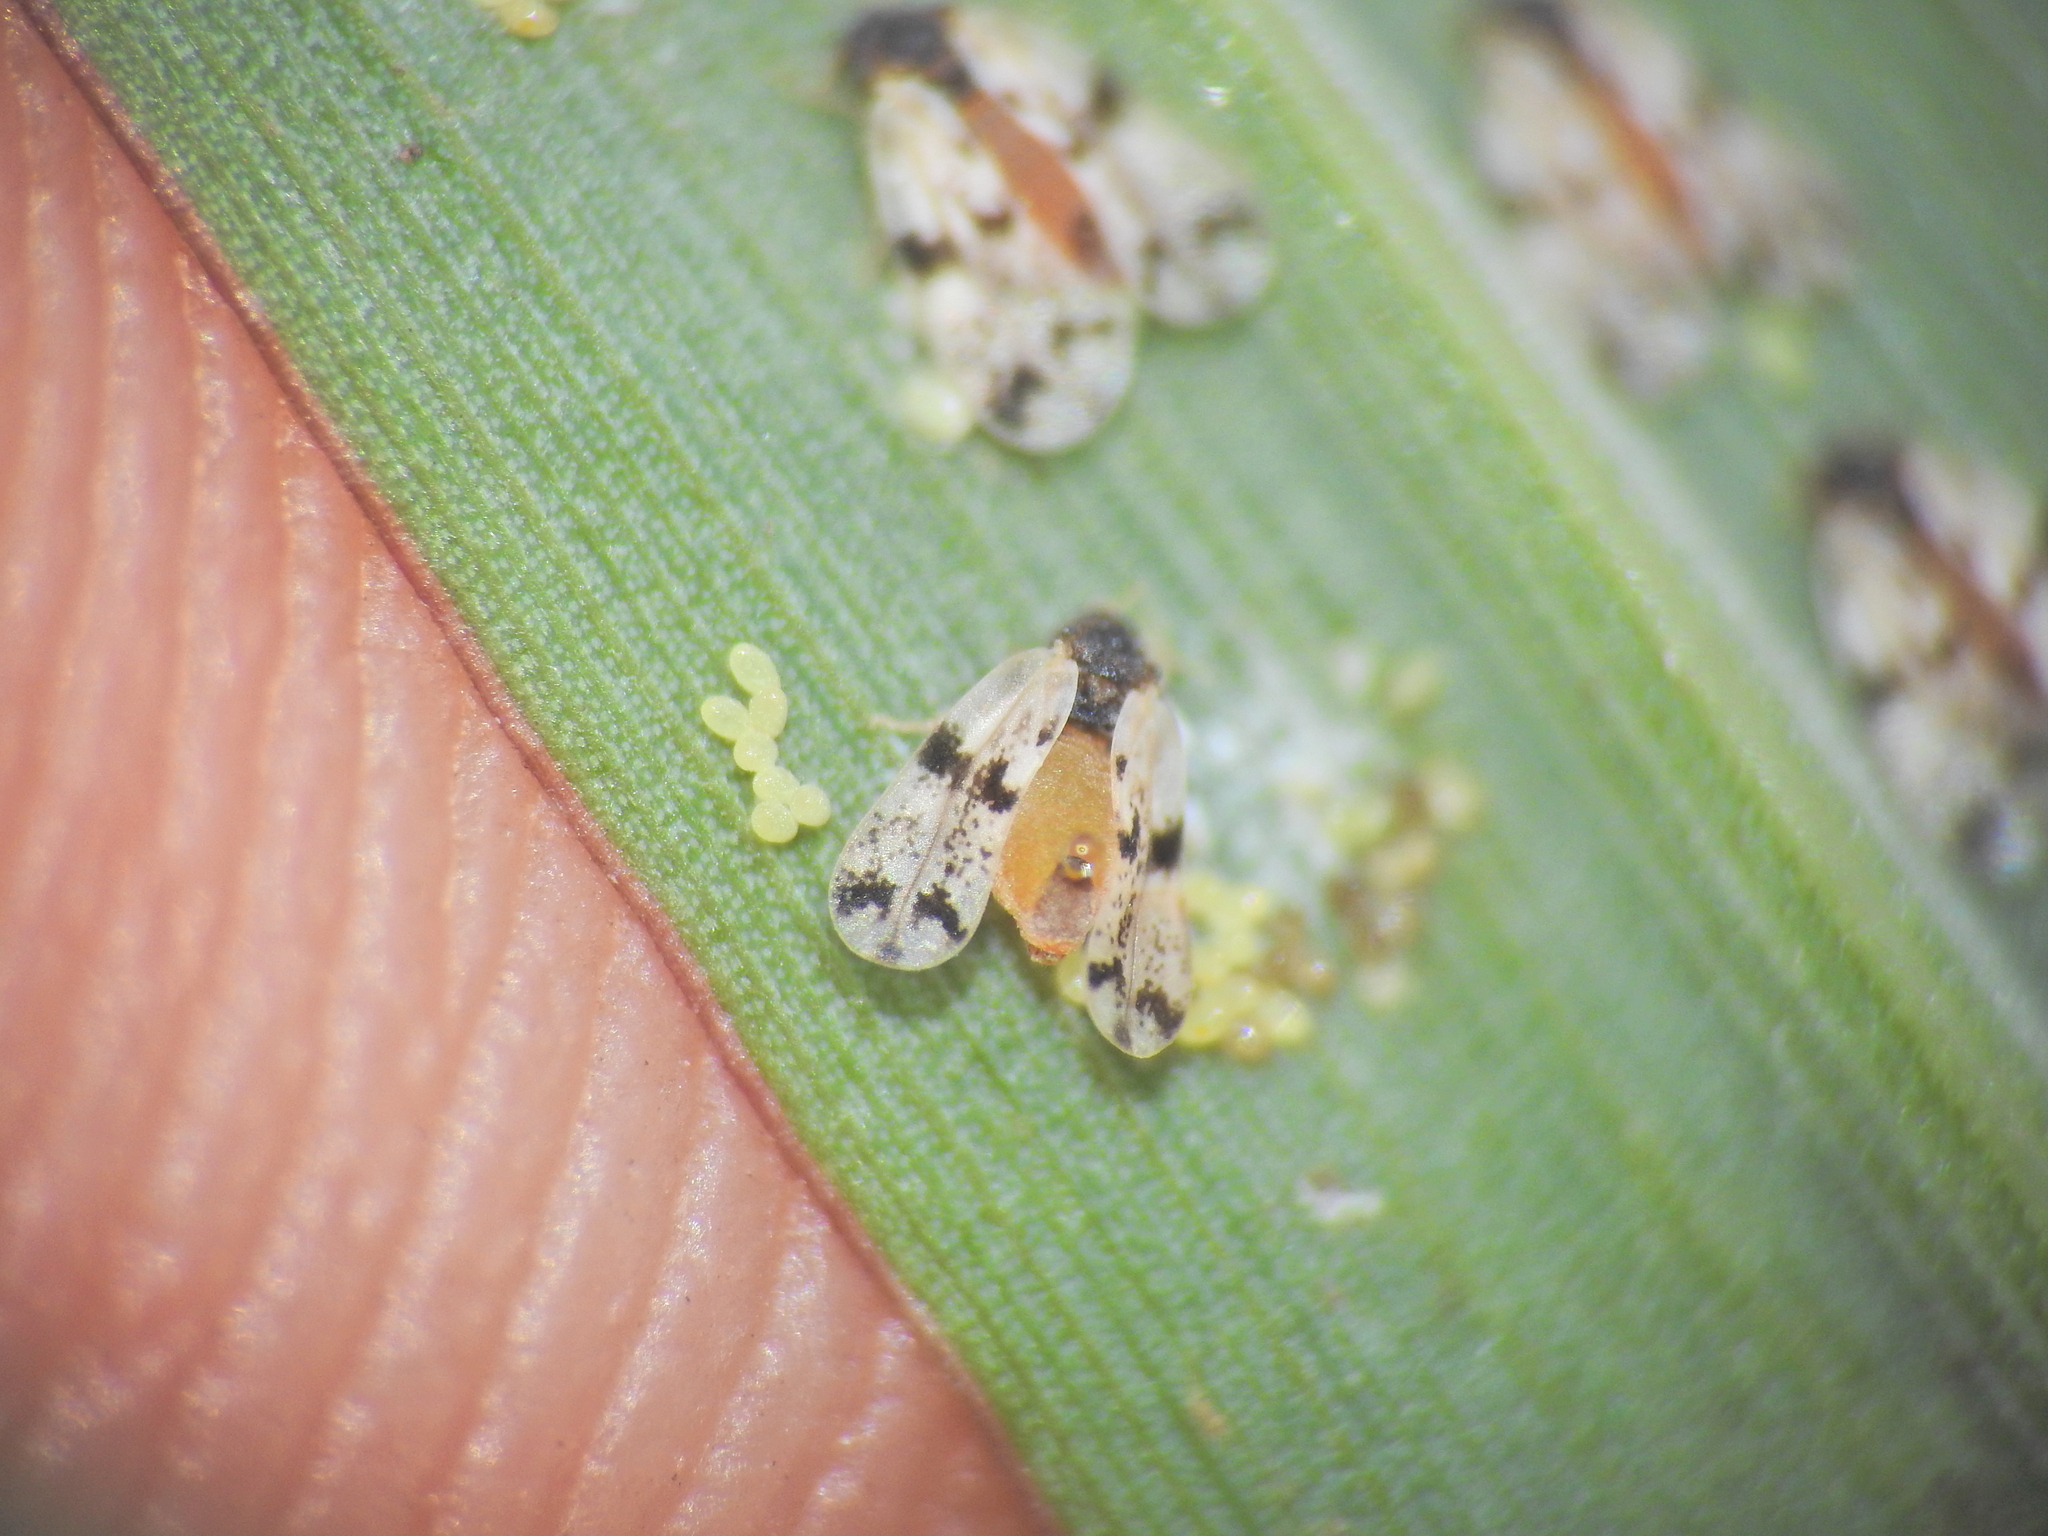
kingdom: Animalia
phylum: Arthropoda
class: Insecta
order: Hemiptera
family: Aleyrodidae
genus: Neomaskellia
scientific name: Neomaskellia bergii
